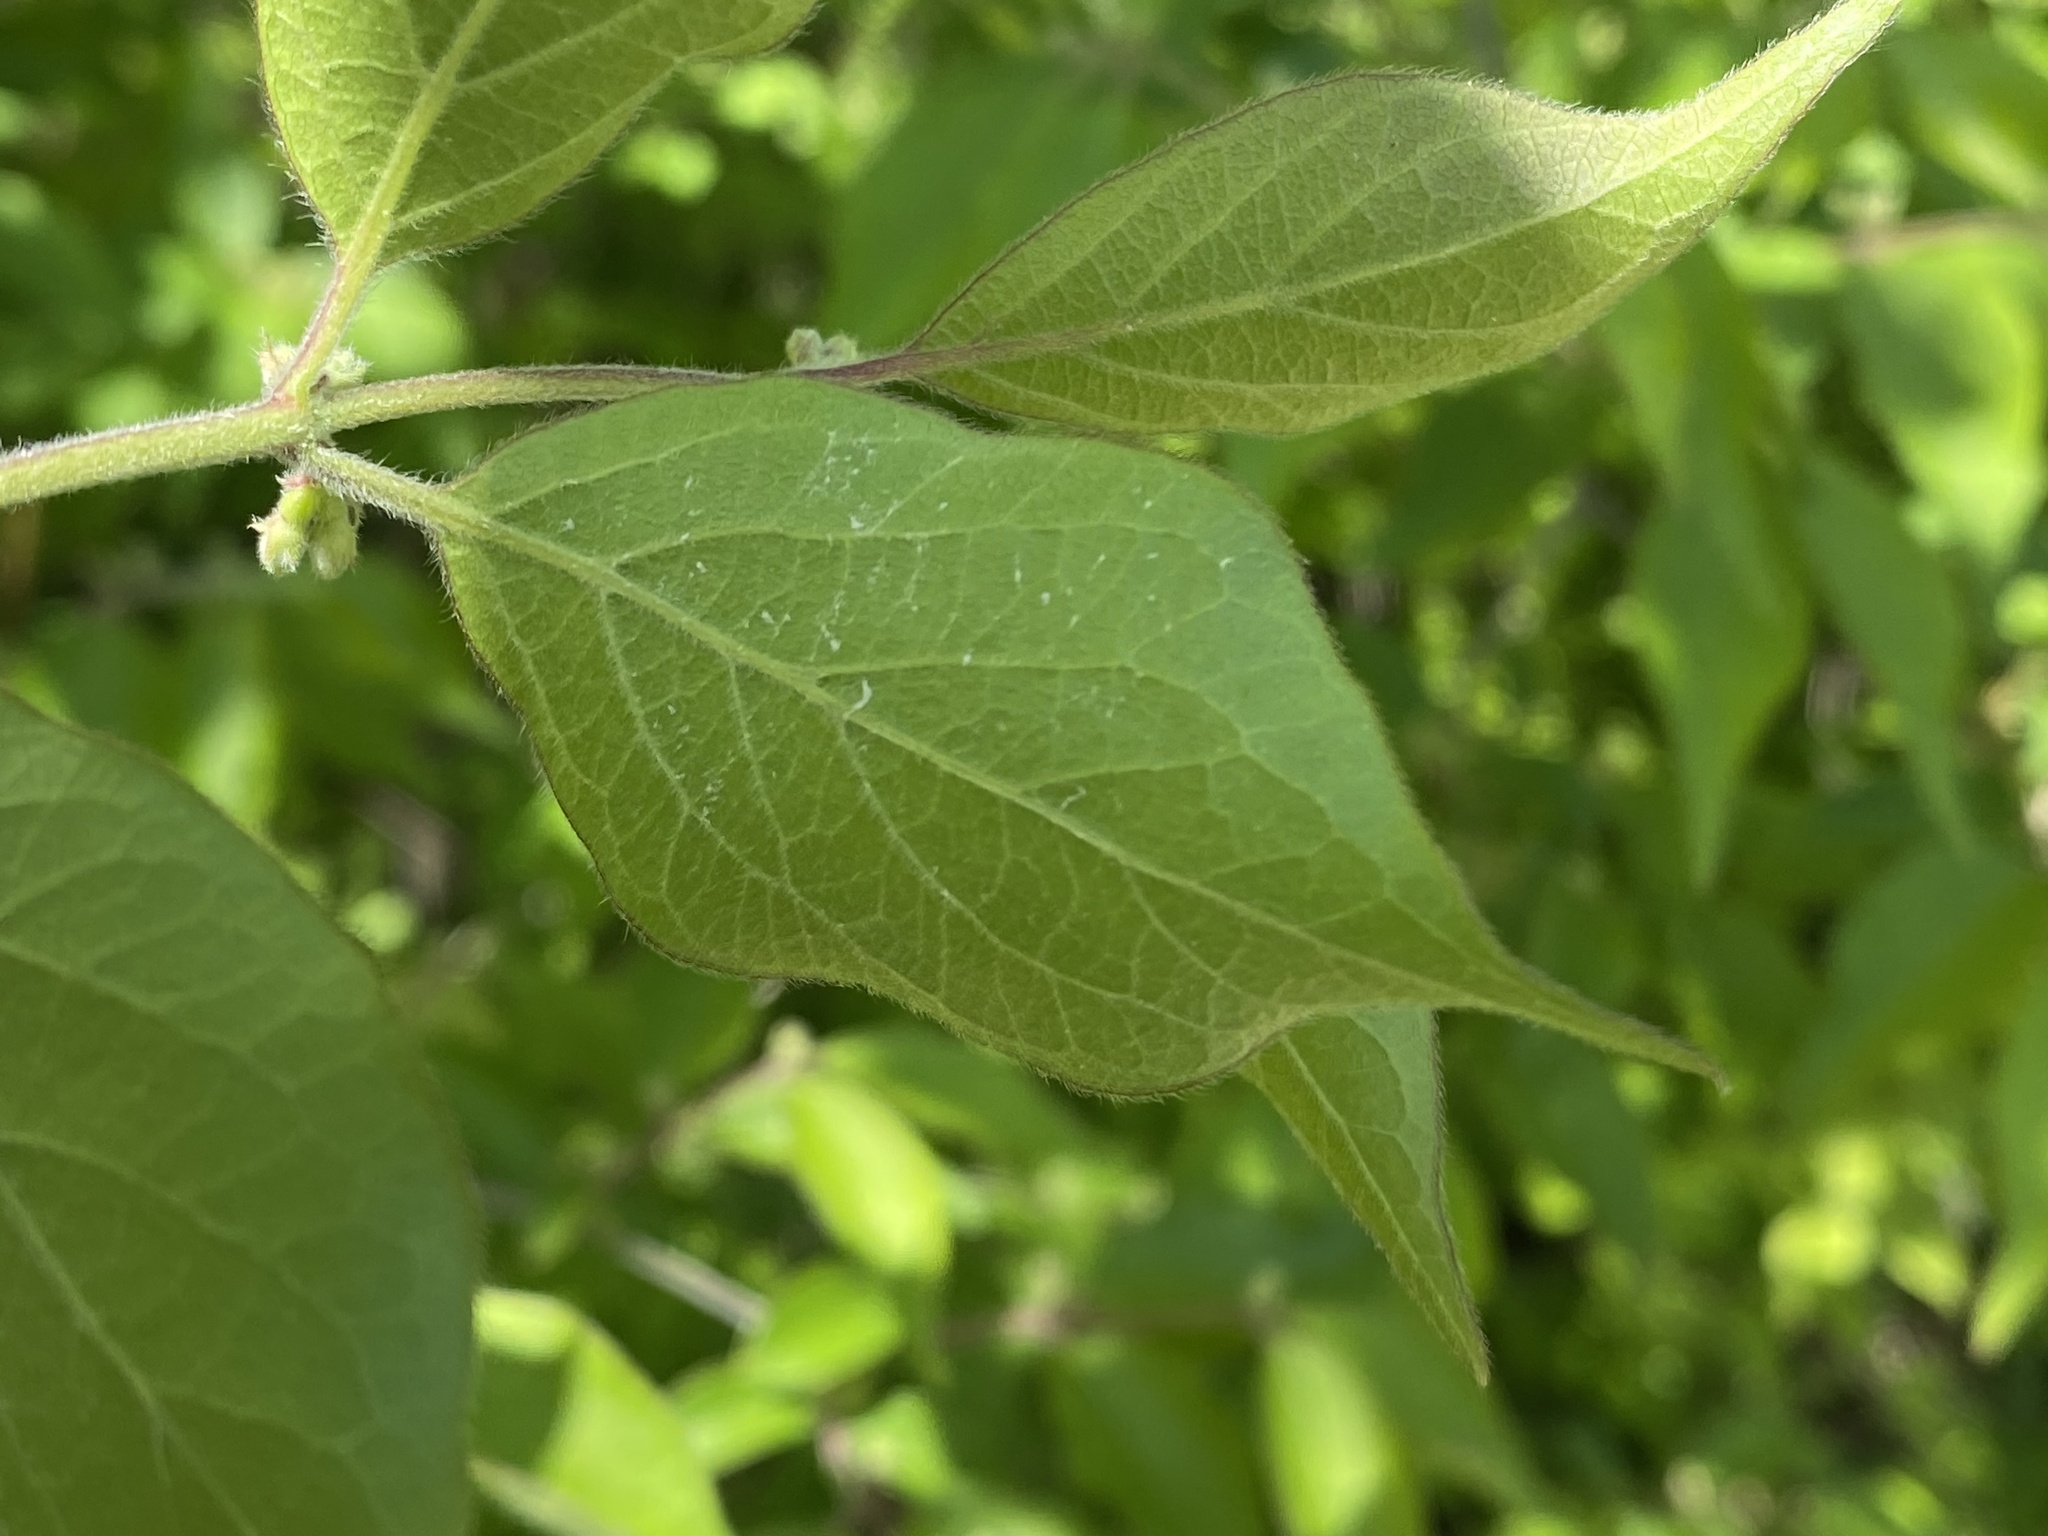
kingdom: Plantae
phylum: Tracheophyta
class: Magnoliopsida
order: Dipsacales
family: Caprifoliaceae
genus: Lonicera
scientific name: Lonicera maackii
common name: Amur honeysuckle
